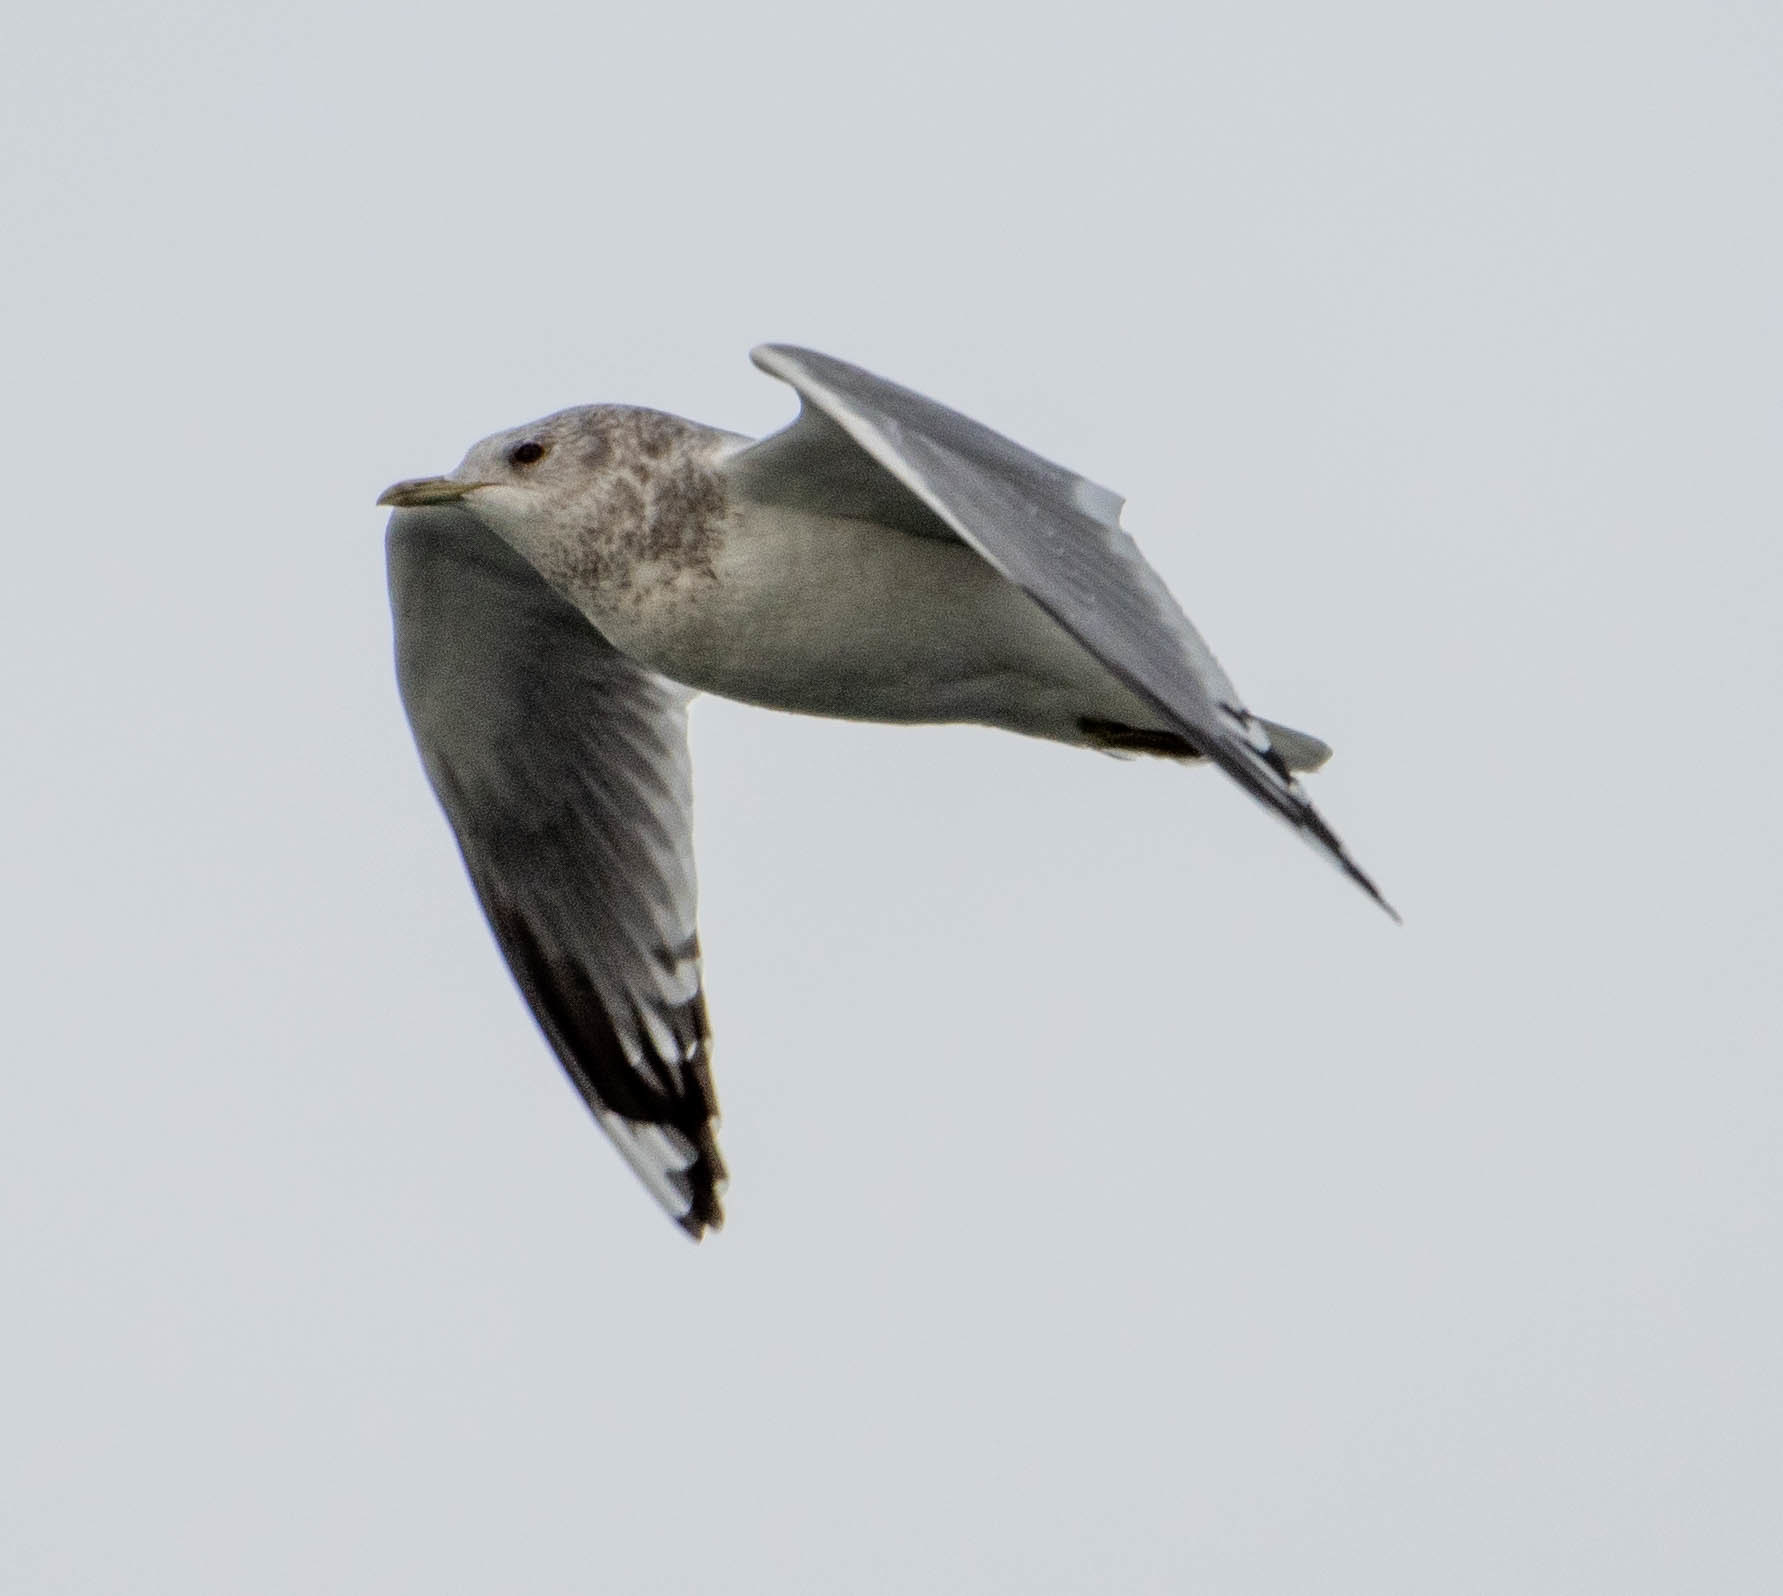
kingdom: Animalia
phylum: Chordata
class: Aves
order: Charadriiformes
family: Laridae
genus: Larus
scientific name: Larus brachyrhynchus
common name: Short-billed gull
